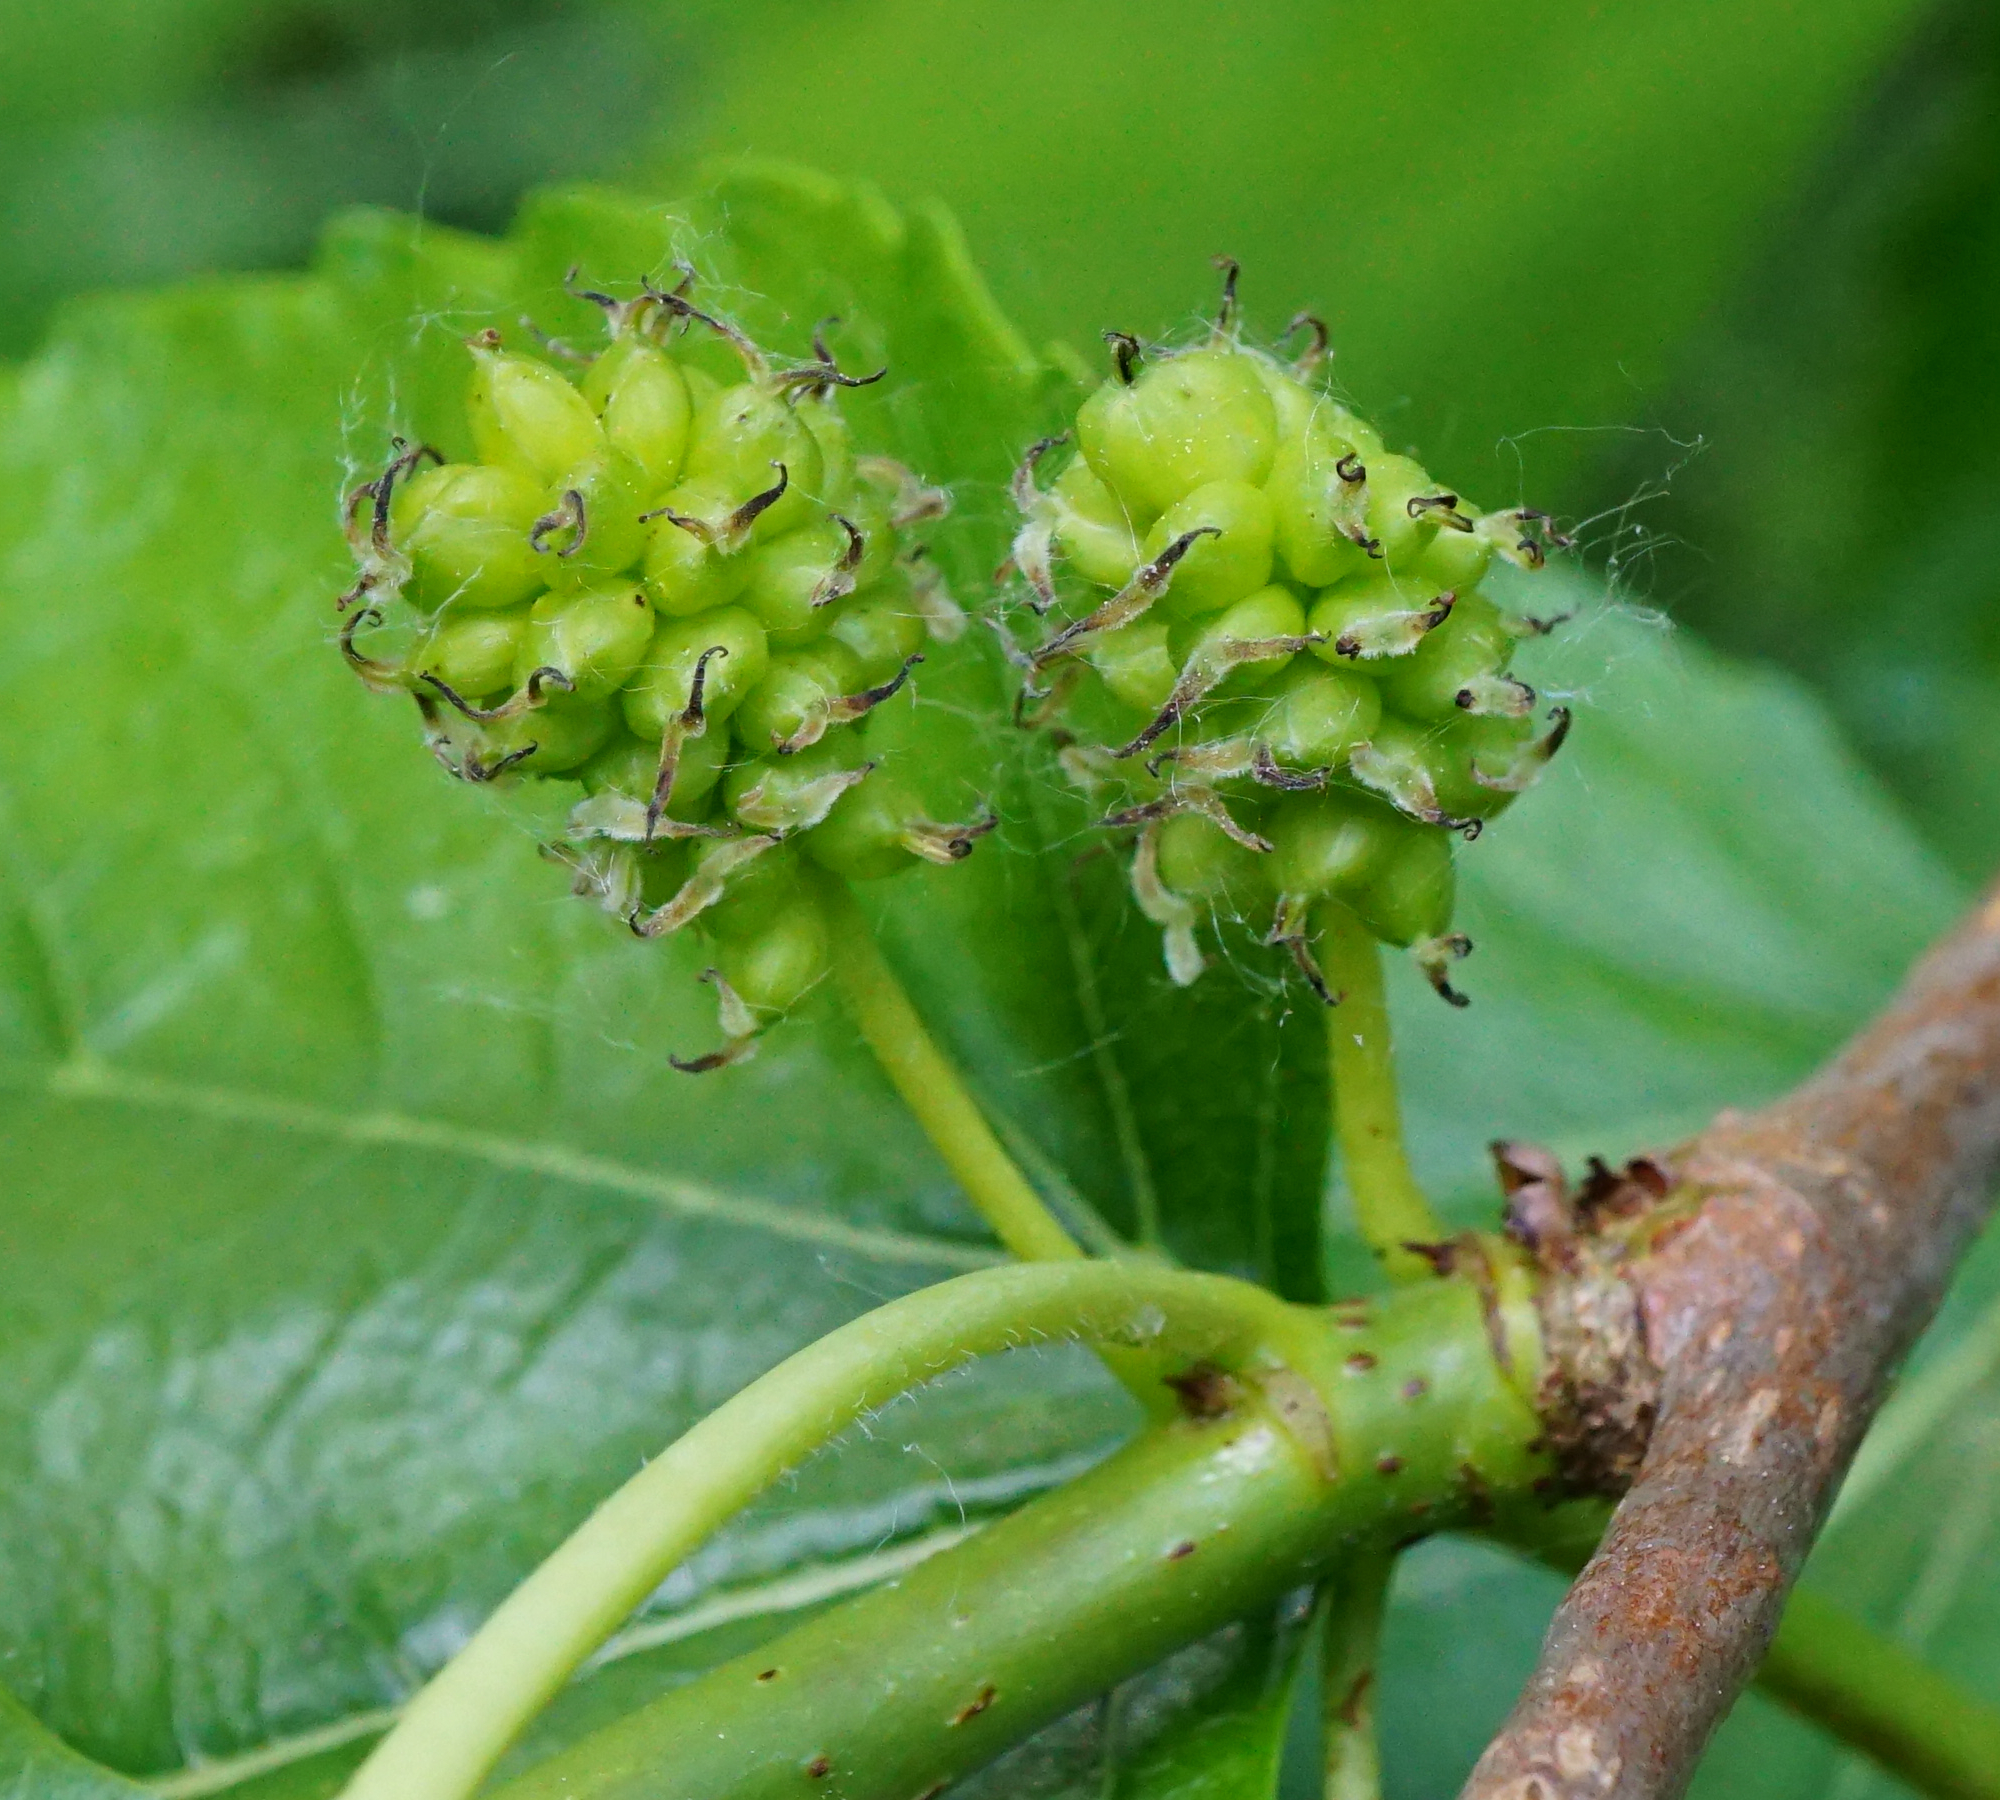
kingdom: Plantae
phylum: Tracheophyta
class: Magnoliopsida
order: Rosales
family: Moraceae
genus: Morus
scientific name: Morus alba
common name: White mulberry
